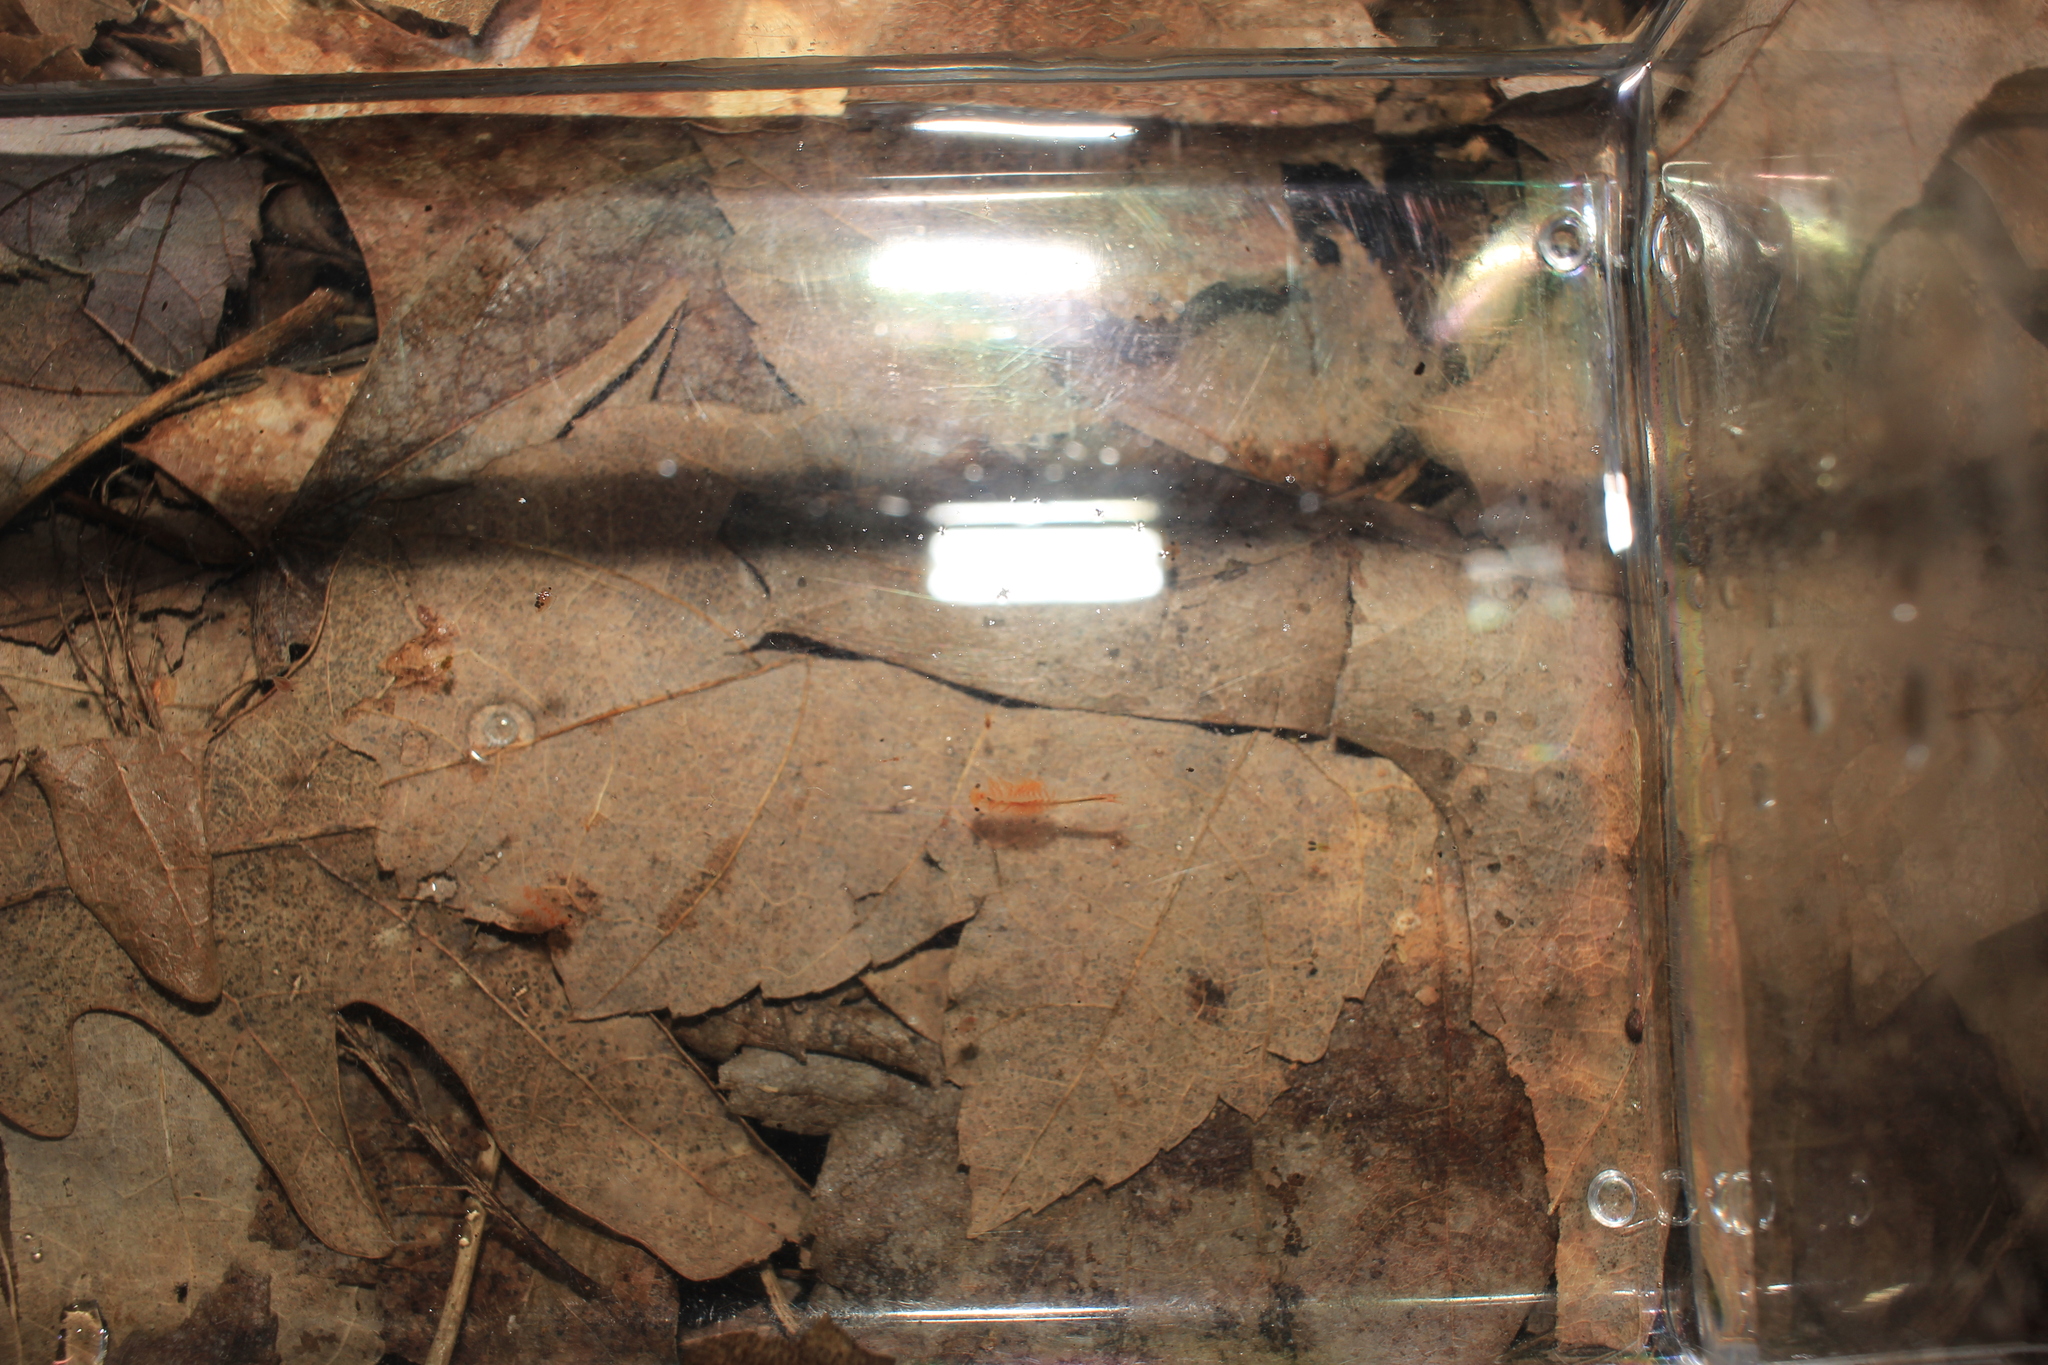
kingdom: Animalia
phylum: Arthropoda
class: Branchiopoda
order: Anostraca
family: Chirocephalidae
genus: Eubranchipus
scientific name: Eubranchipus vernalis
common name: Eastern fairy shrimp
